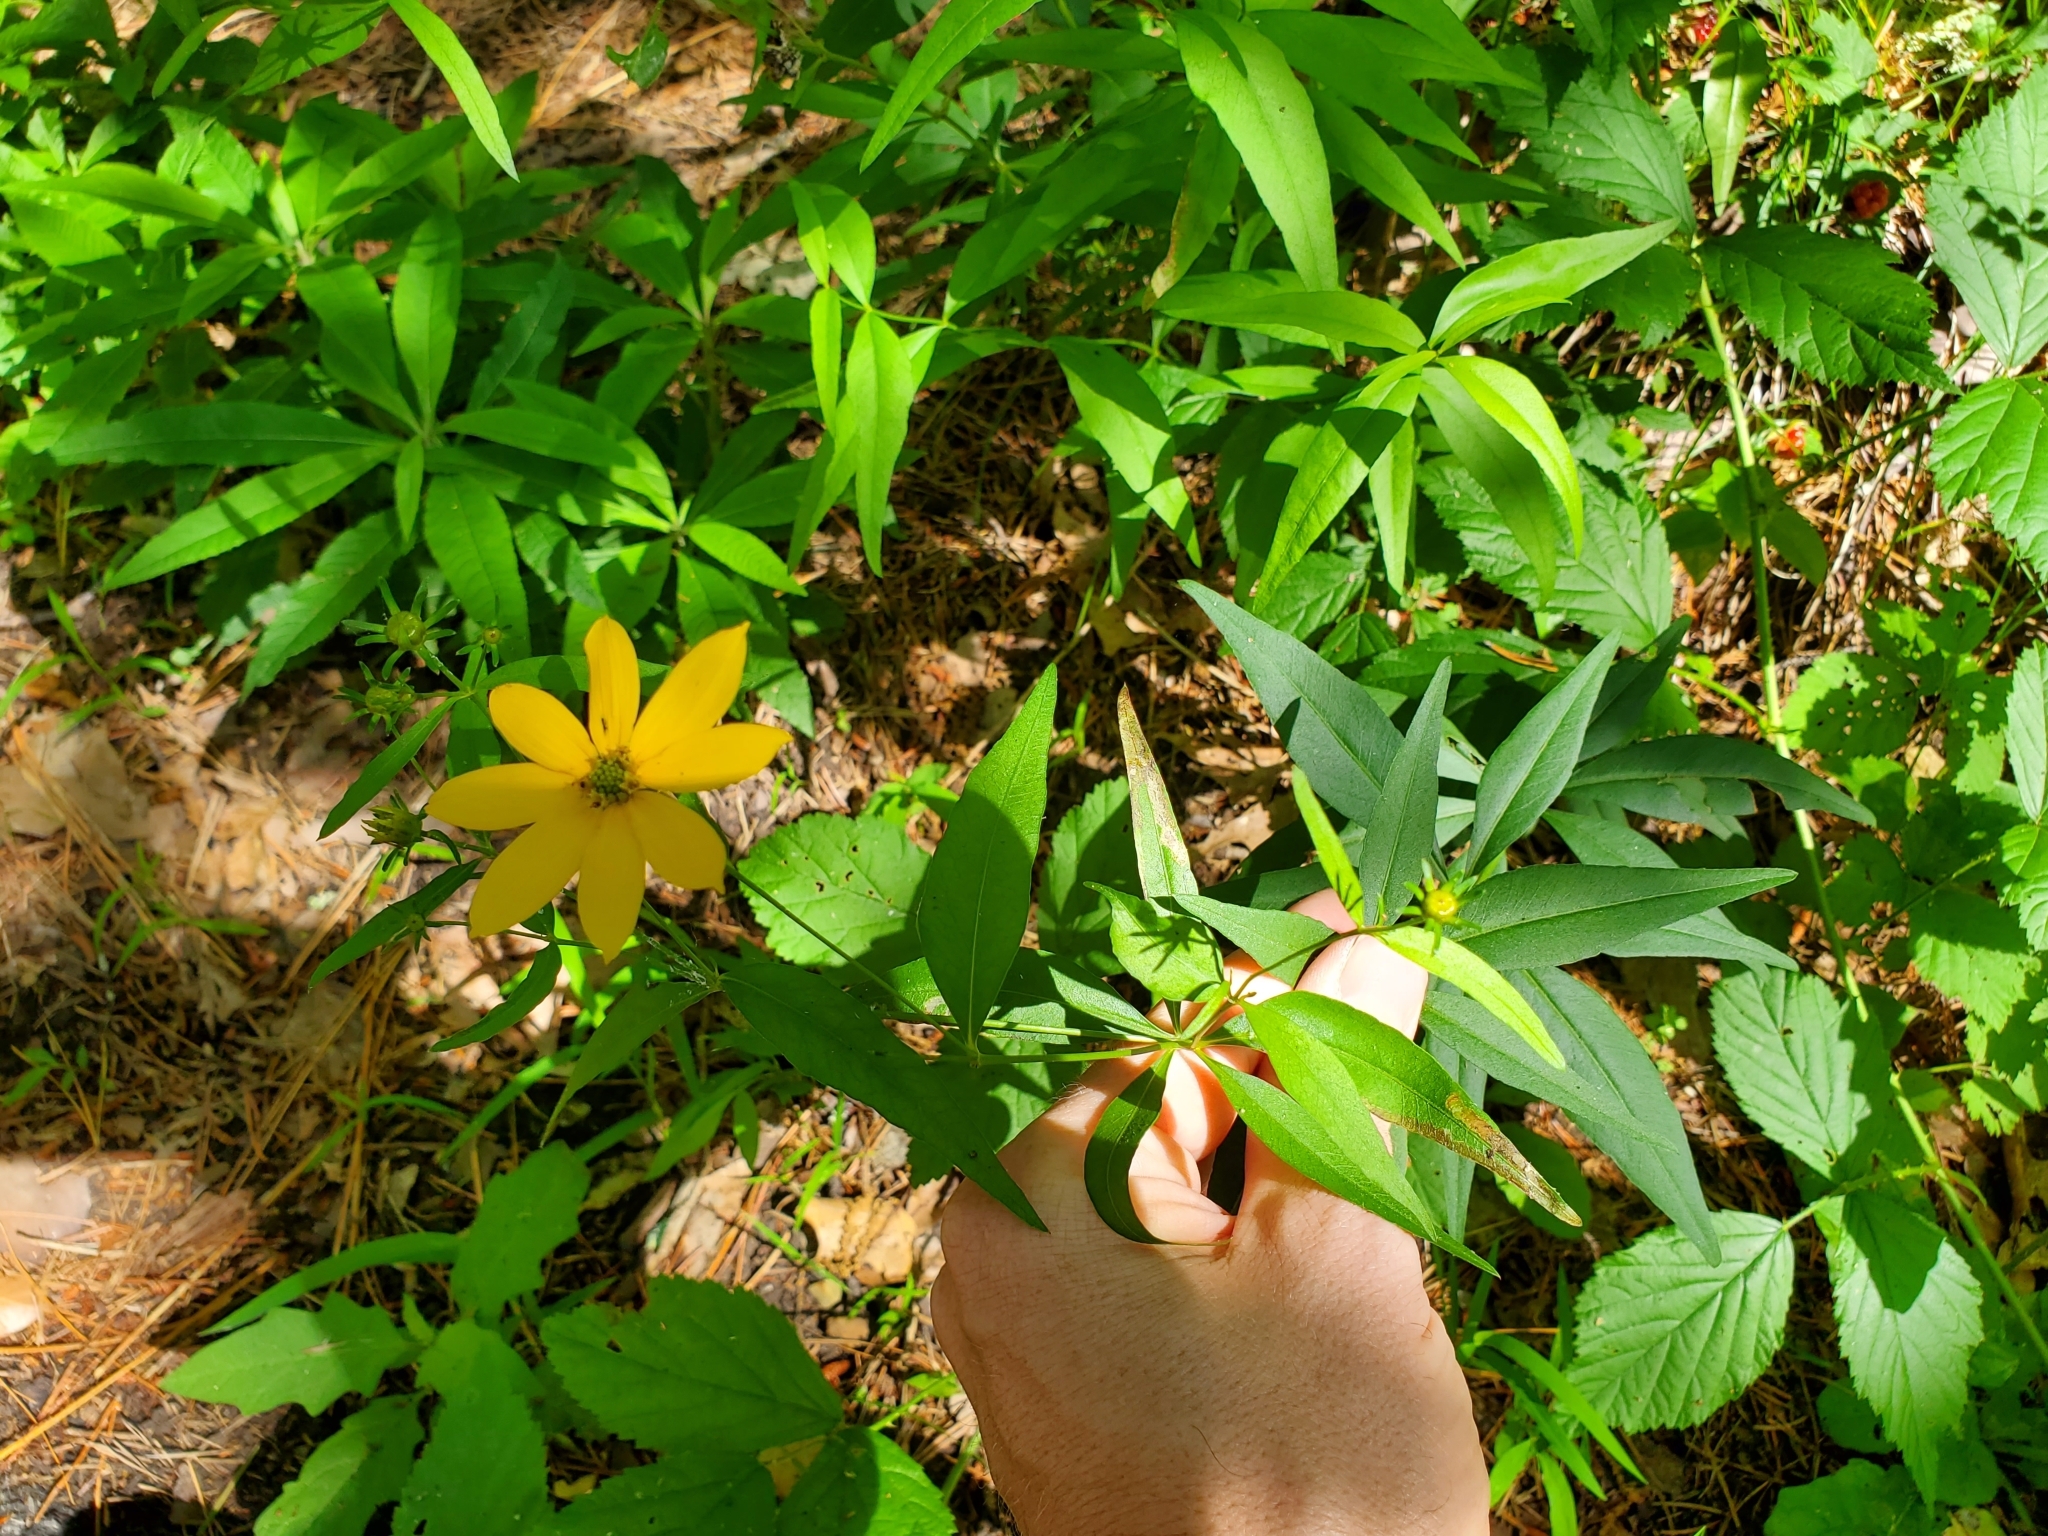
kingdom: Plantae
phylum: Tracheophyta
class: Magnoliopsida
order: Asterales
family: Asteraceae
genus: Coreopsis
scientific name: Coreopsis major
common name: Forest tickseed
